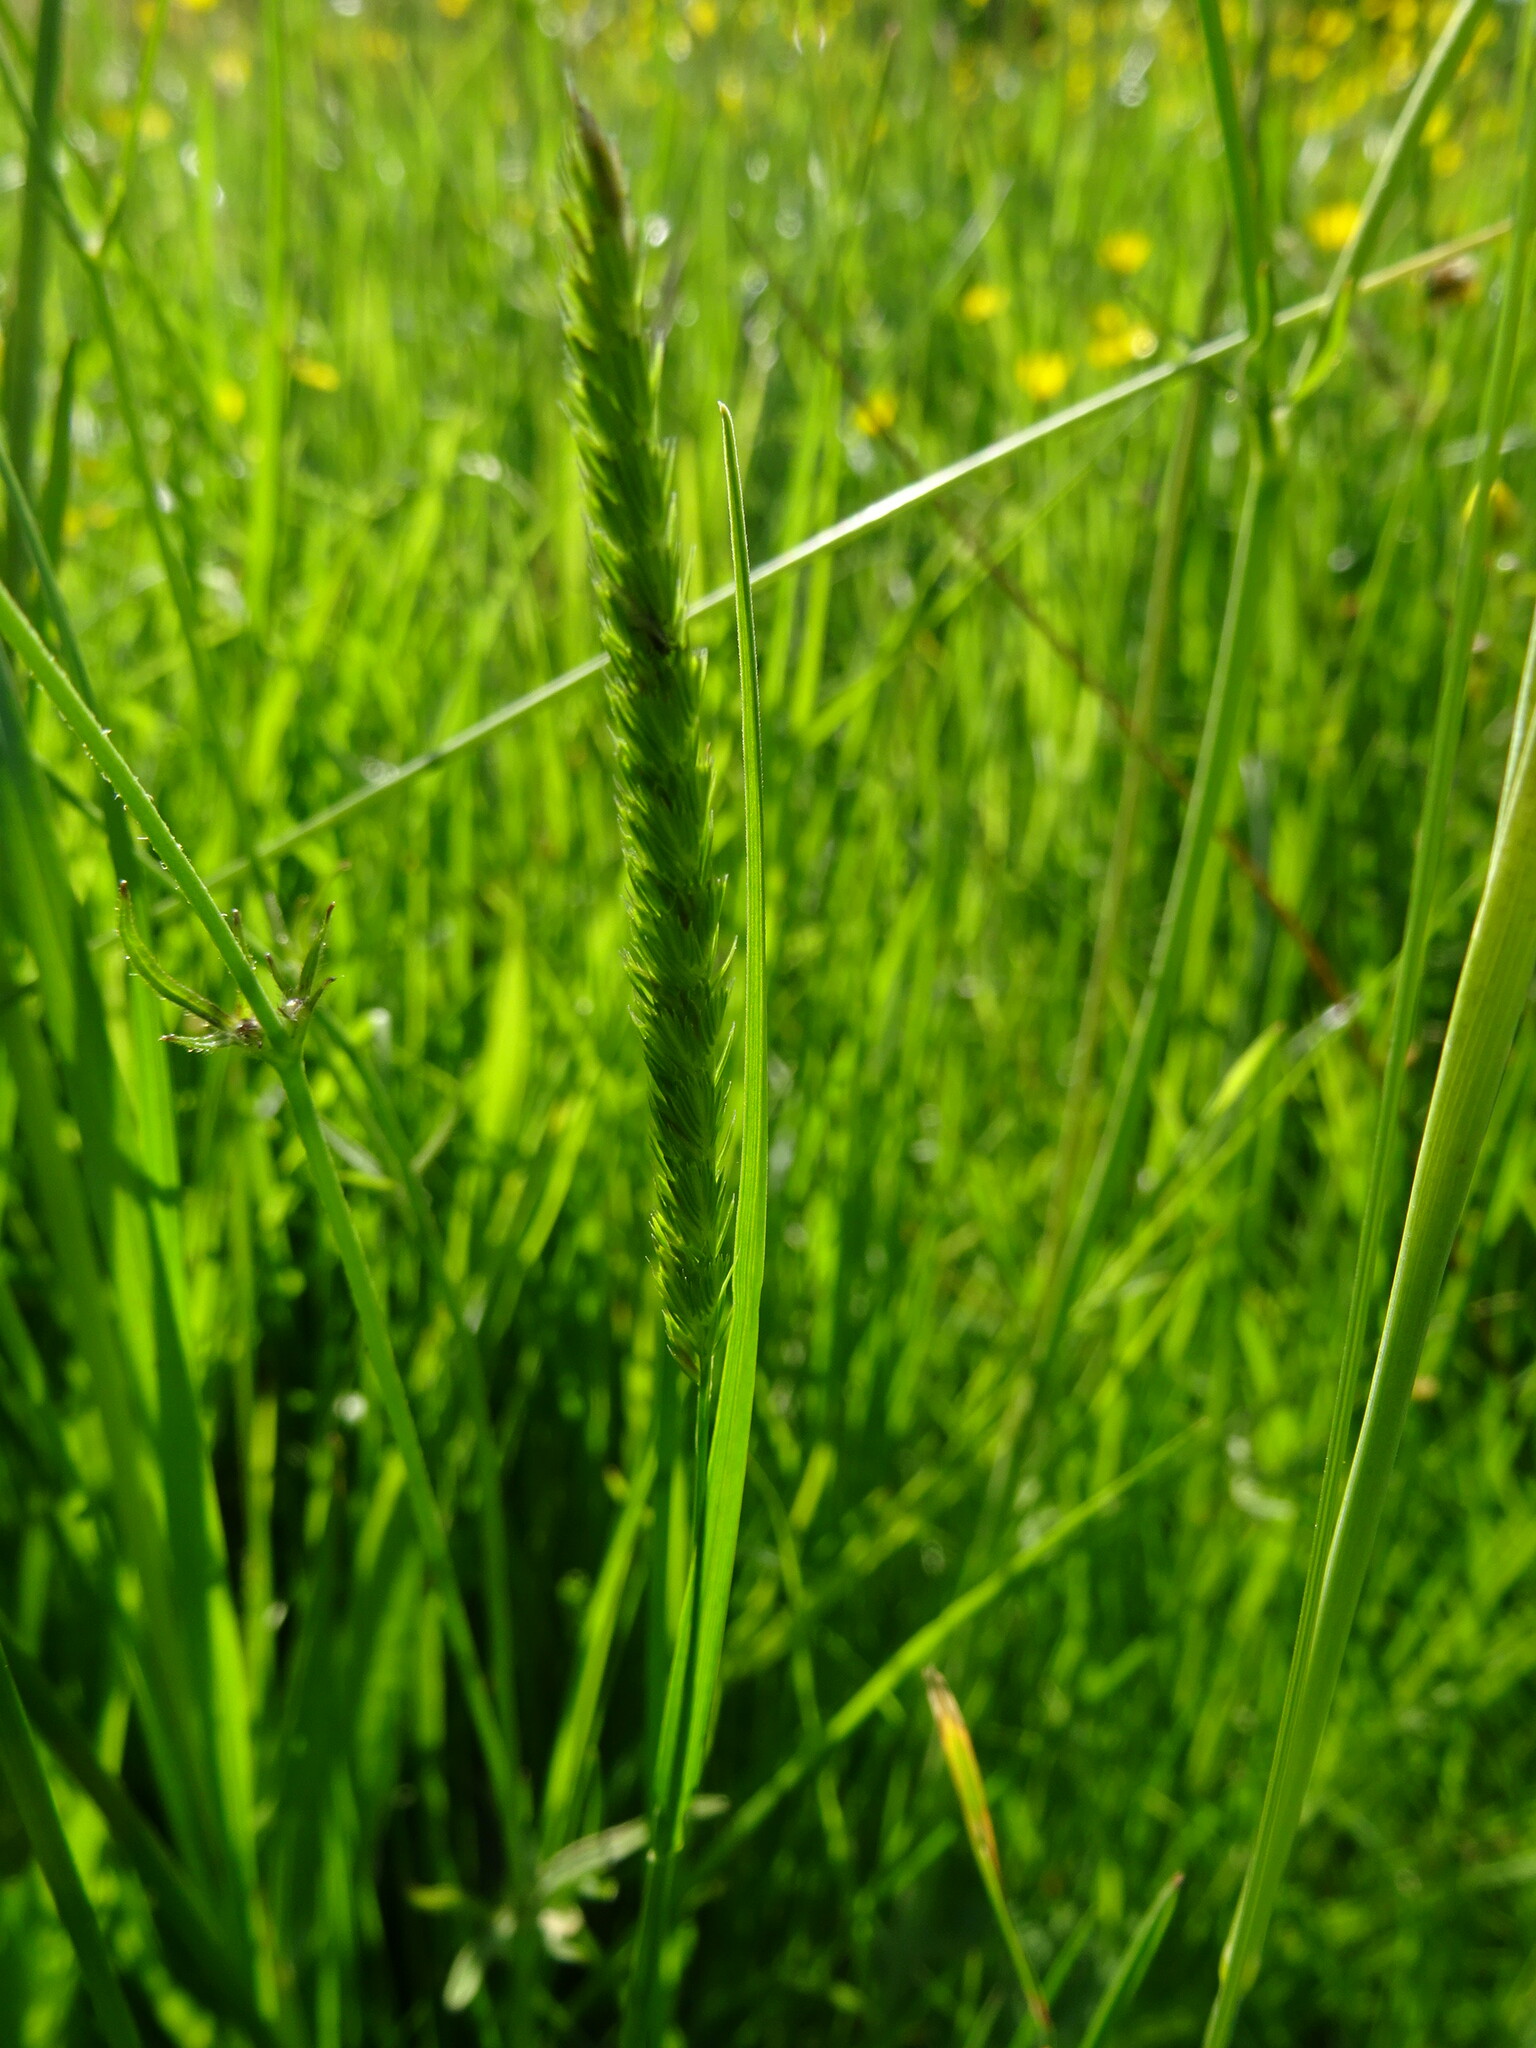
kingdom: Plantae
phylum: Tracheophyta
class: Liliopsida
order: Poales
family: Poaceae
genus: Cynosurus
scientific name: Cynosurus cristatus
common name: Crested dog's-tail
